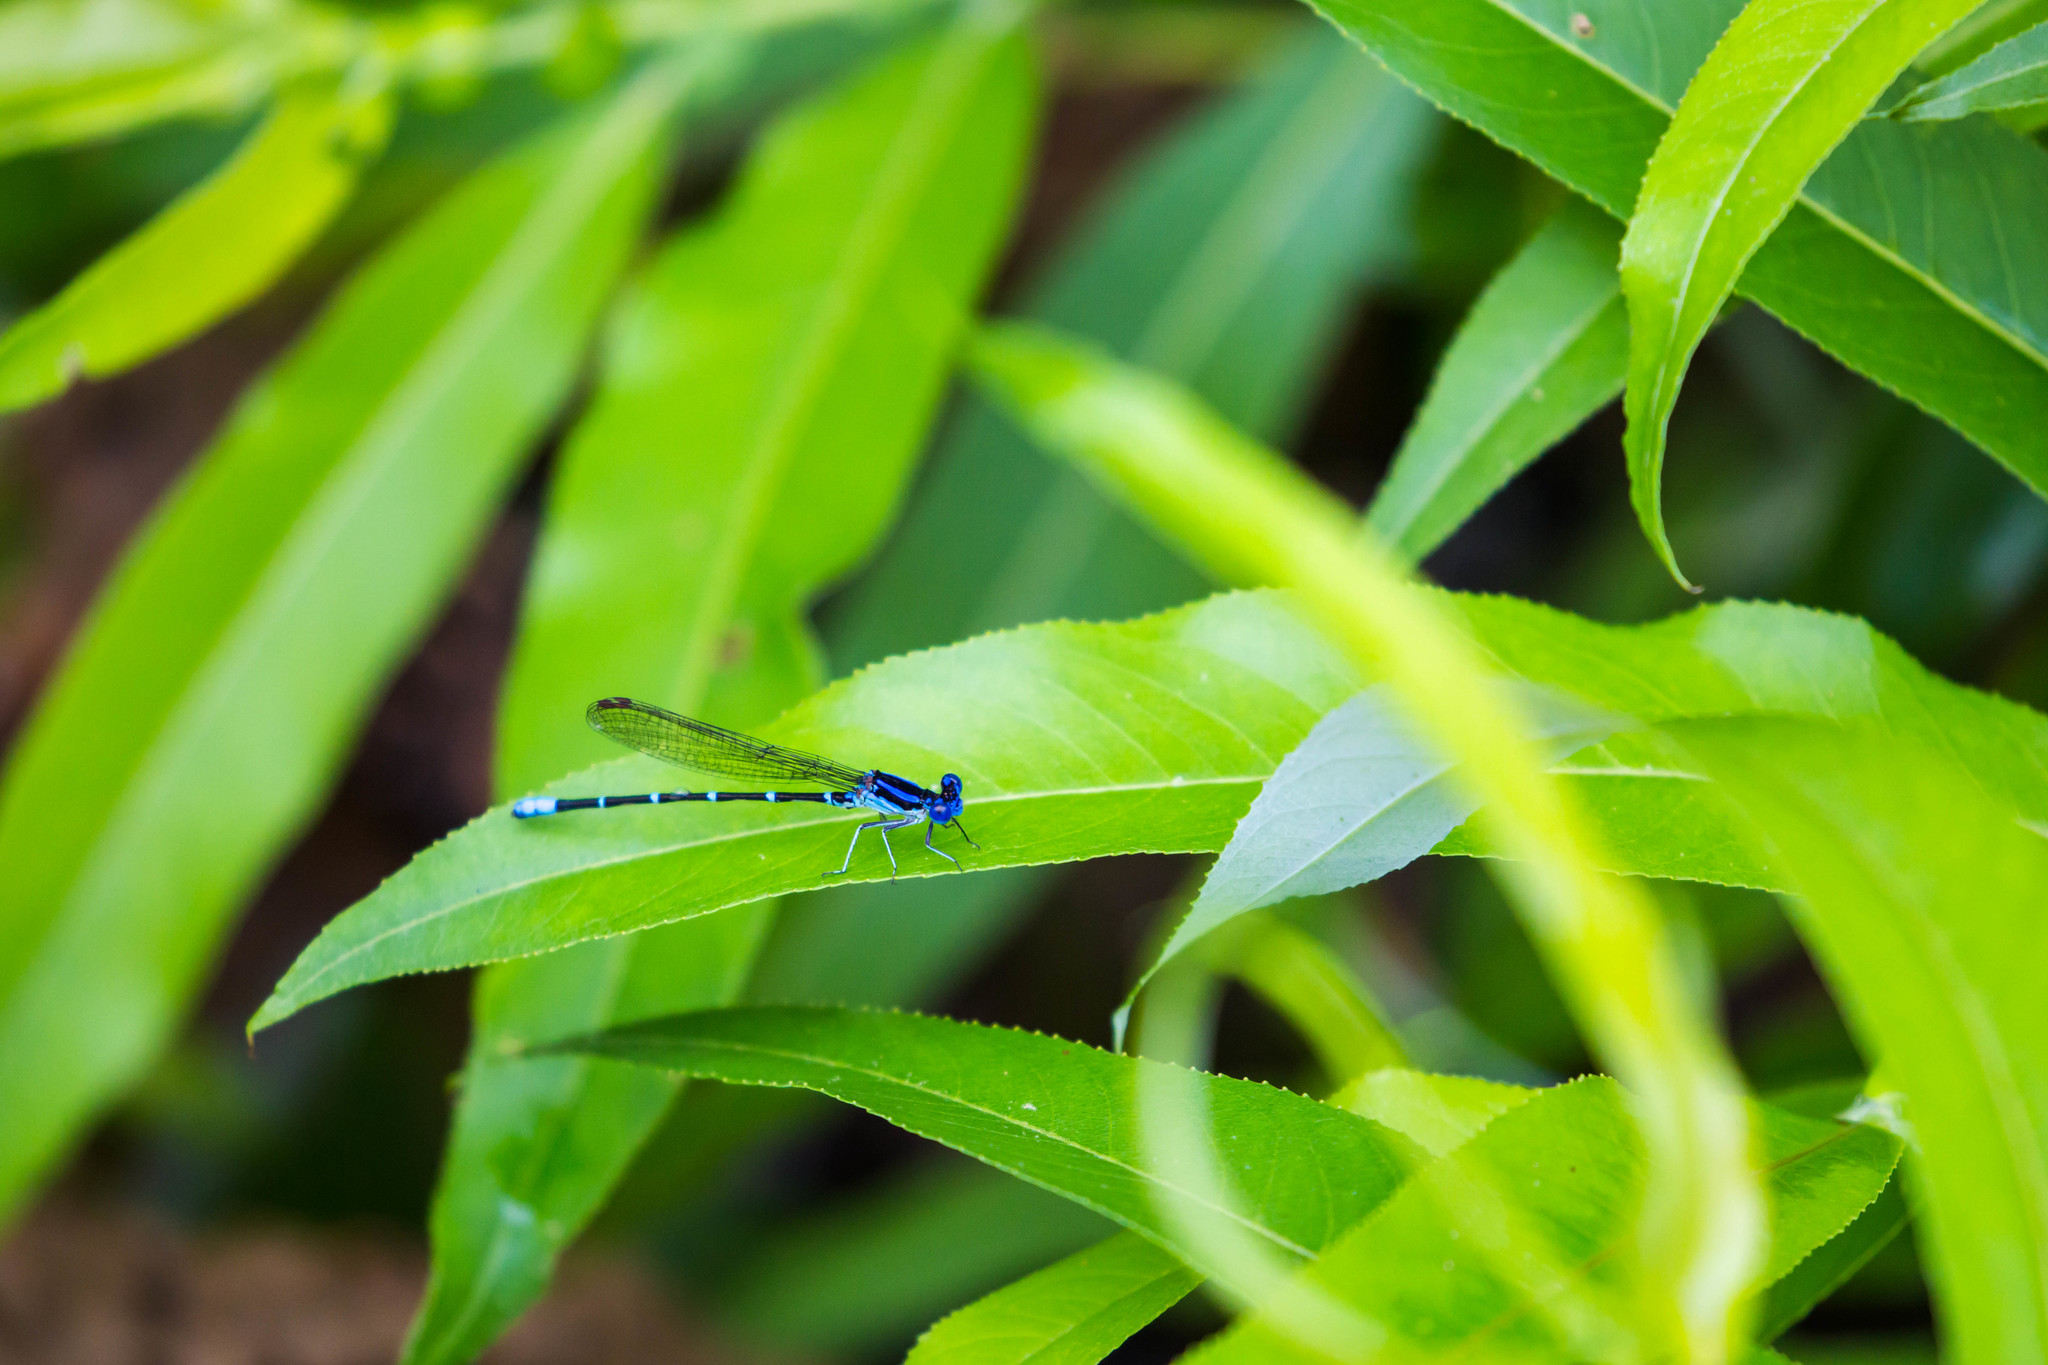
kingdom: Animalia
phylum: Arthropoda
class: Insecta
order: Odonata
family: Coenagrionidae
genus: Argia
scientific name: Argia sedula
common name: Blue-ringed dancer
